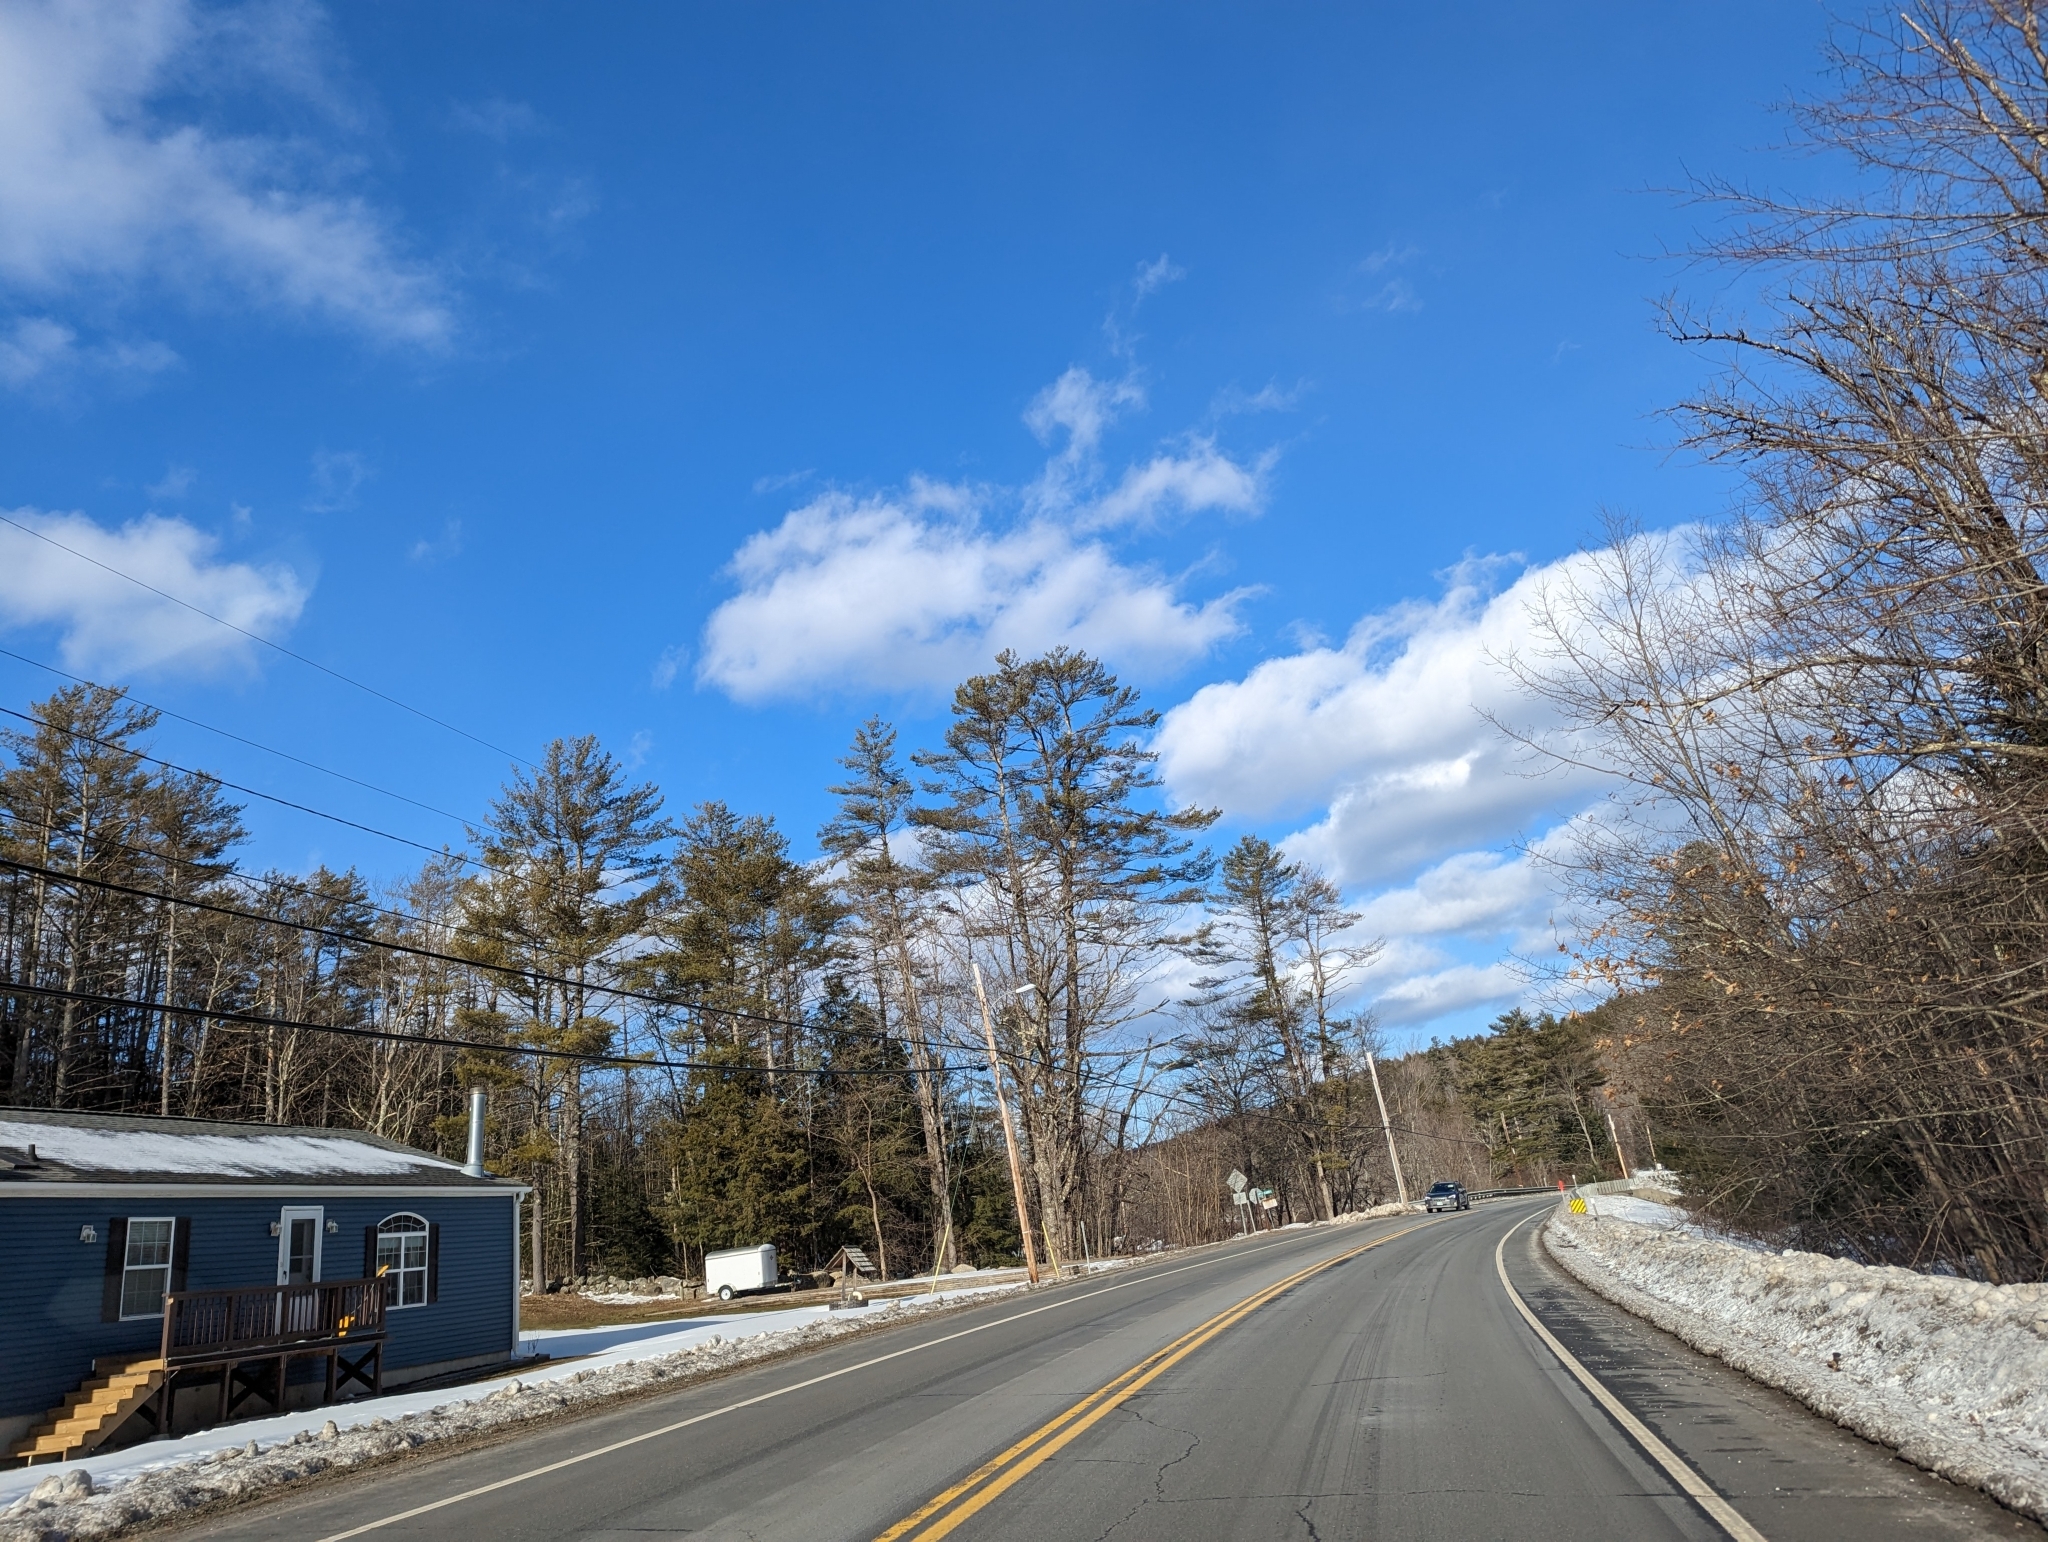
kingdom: Plantae
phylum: Tracheophyta
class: Pinopsida
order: Pinales
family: Pinaceae
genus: Pinus
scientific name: Pinus strobus
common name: Weymouth pine
